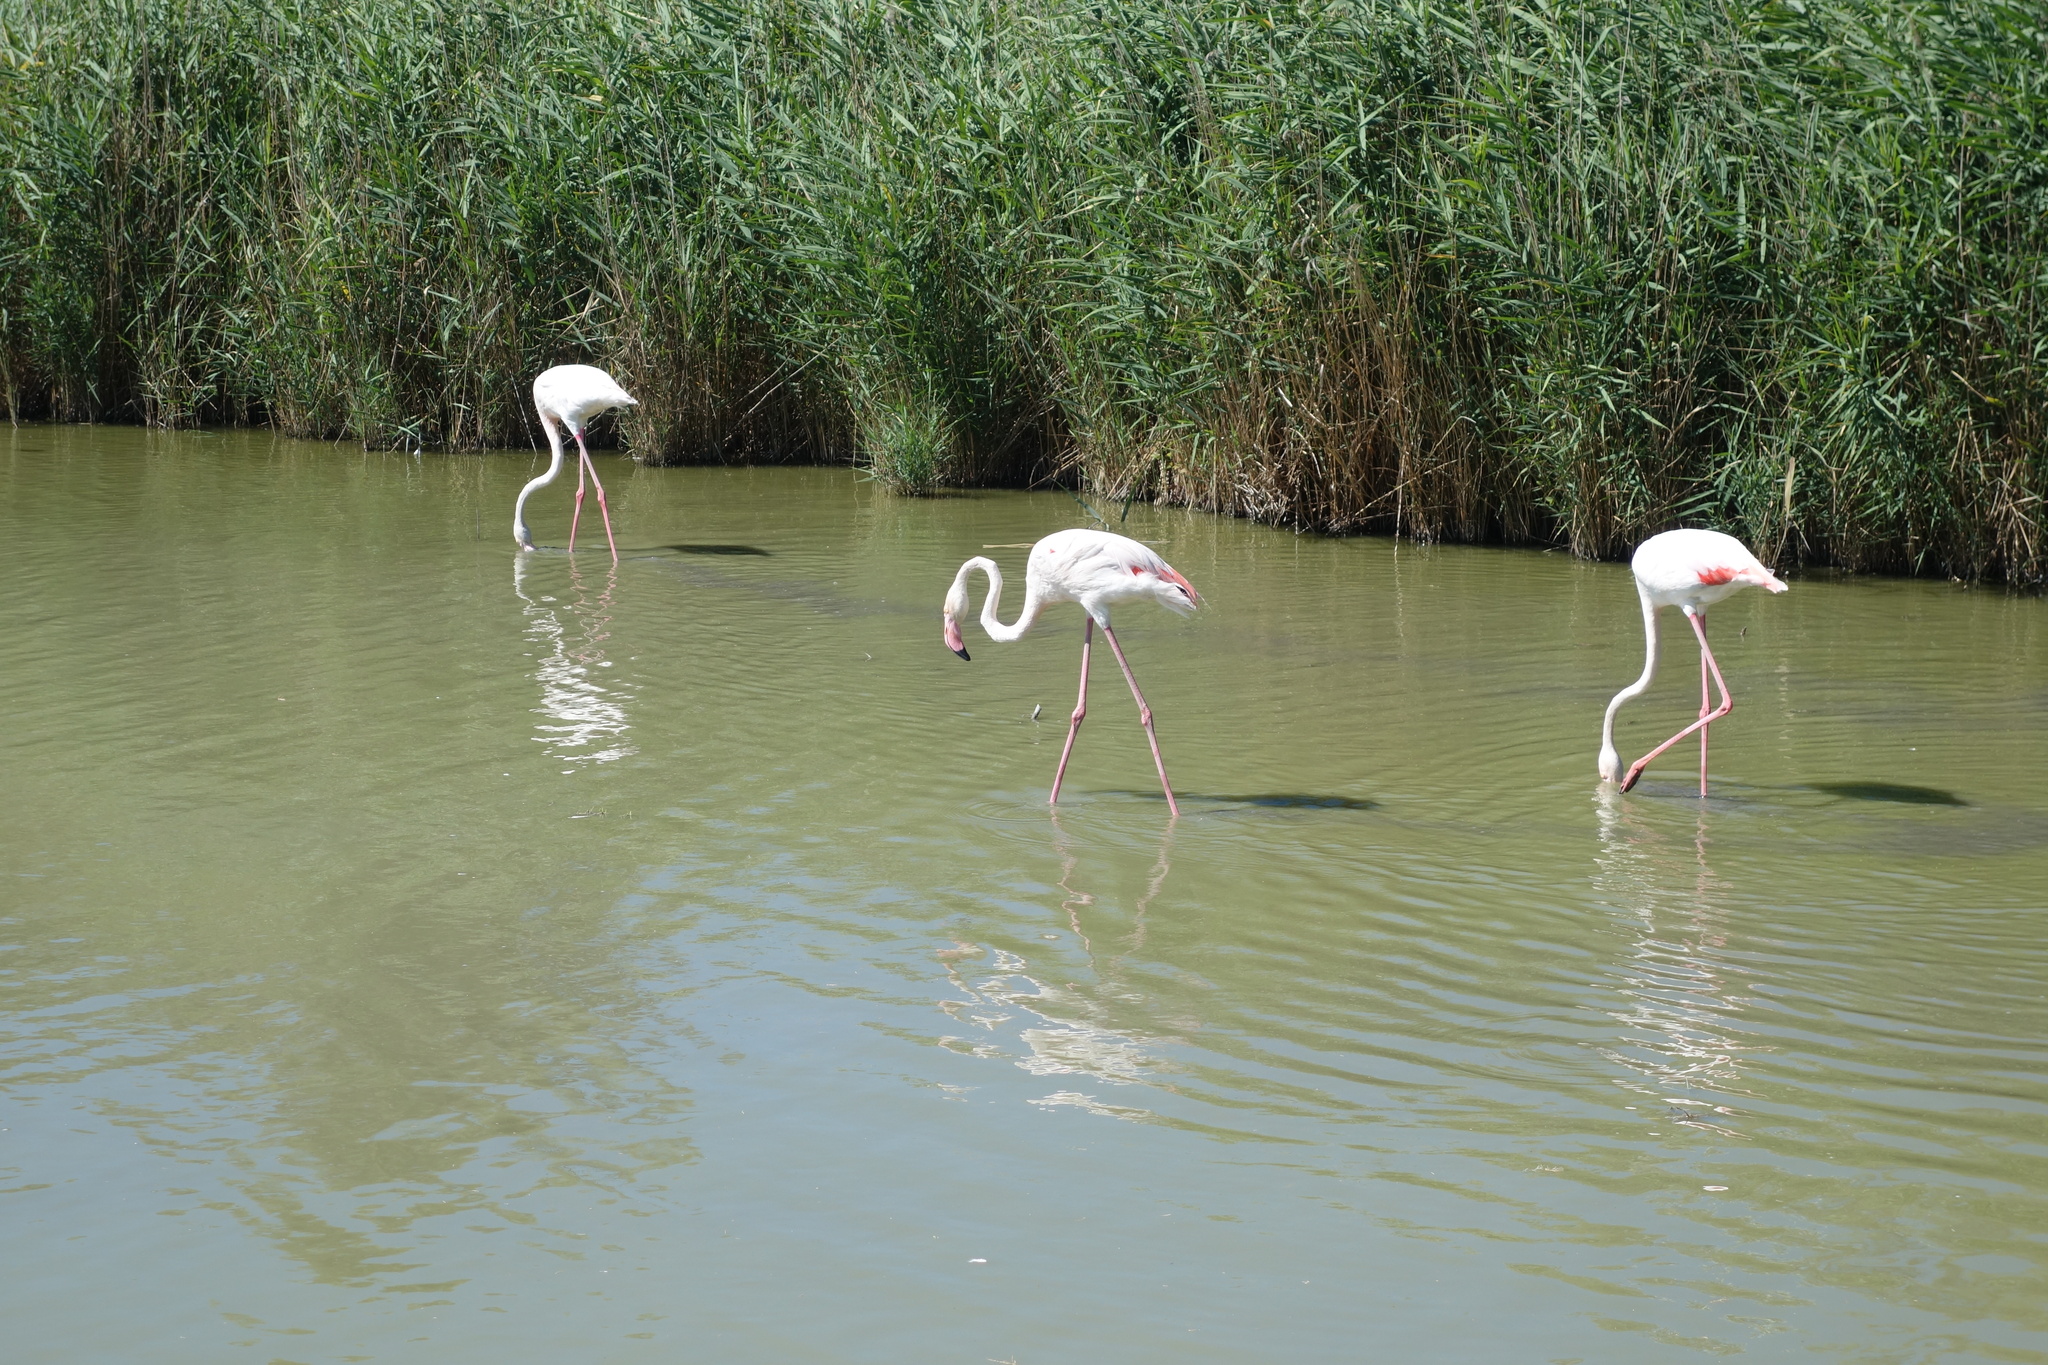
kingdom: Animalia
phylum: Chordata
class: Aves
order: Phoenicopteriformes
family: Phoenicopteridae
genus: Phoenicopterus
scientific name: Phoenicopterus roseus
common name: Greater flamingo
